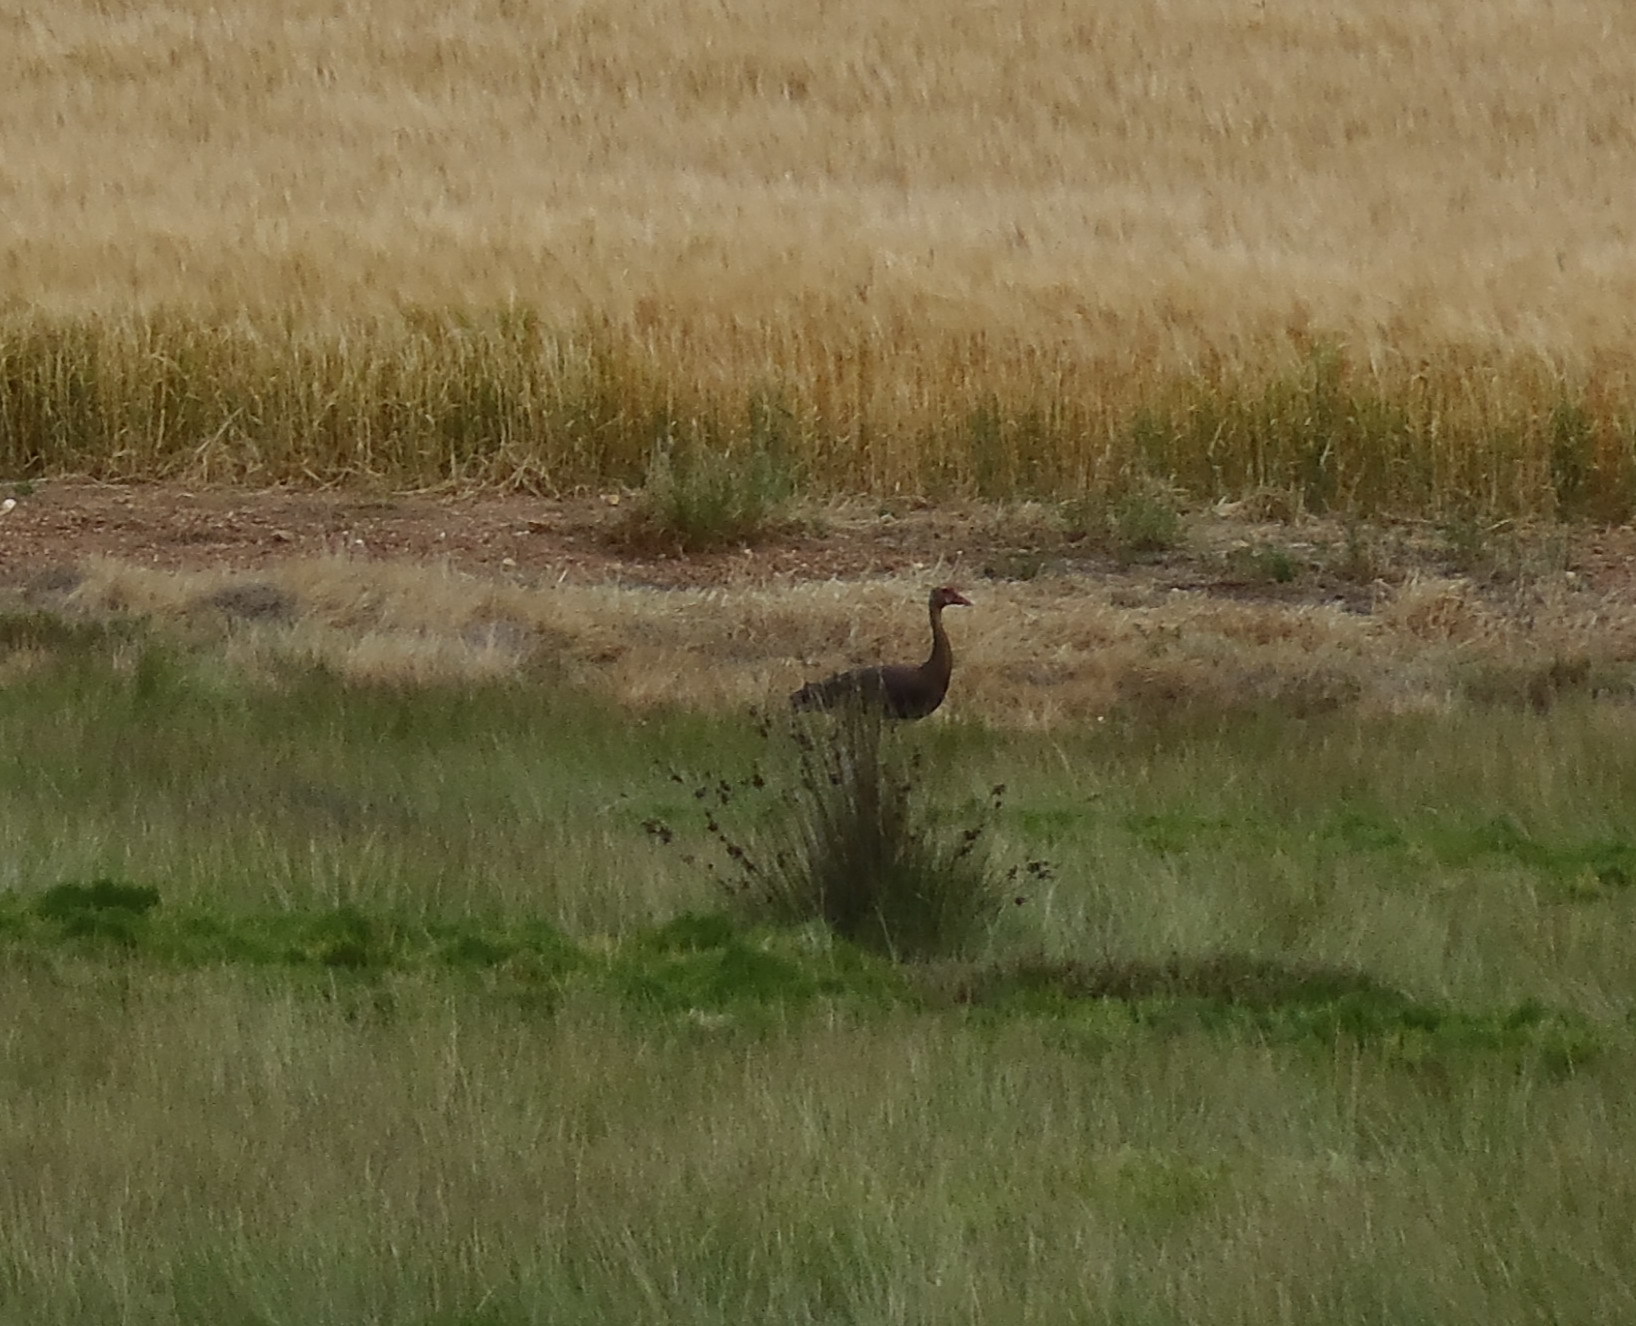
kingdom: Animalia
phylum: Chordata
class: Aves
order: Anseriformes
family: Anatidae
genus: Plectropterus
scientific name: Plectropterus gambensis
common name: Spur-winged goose
